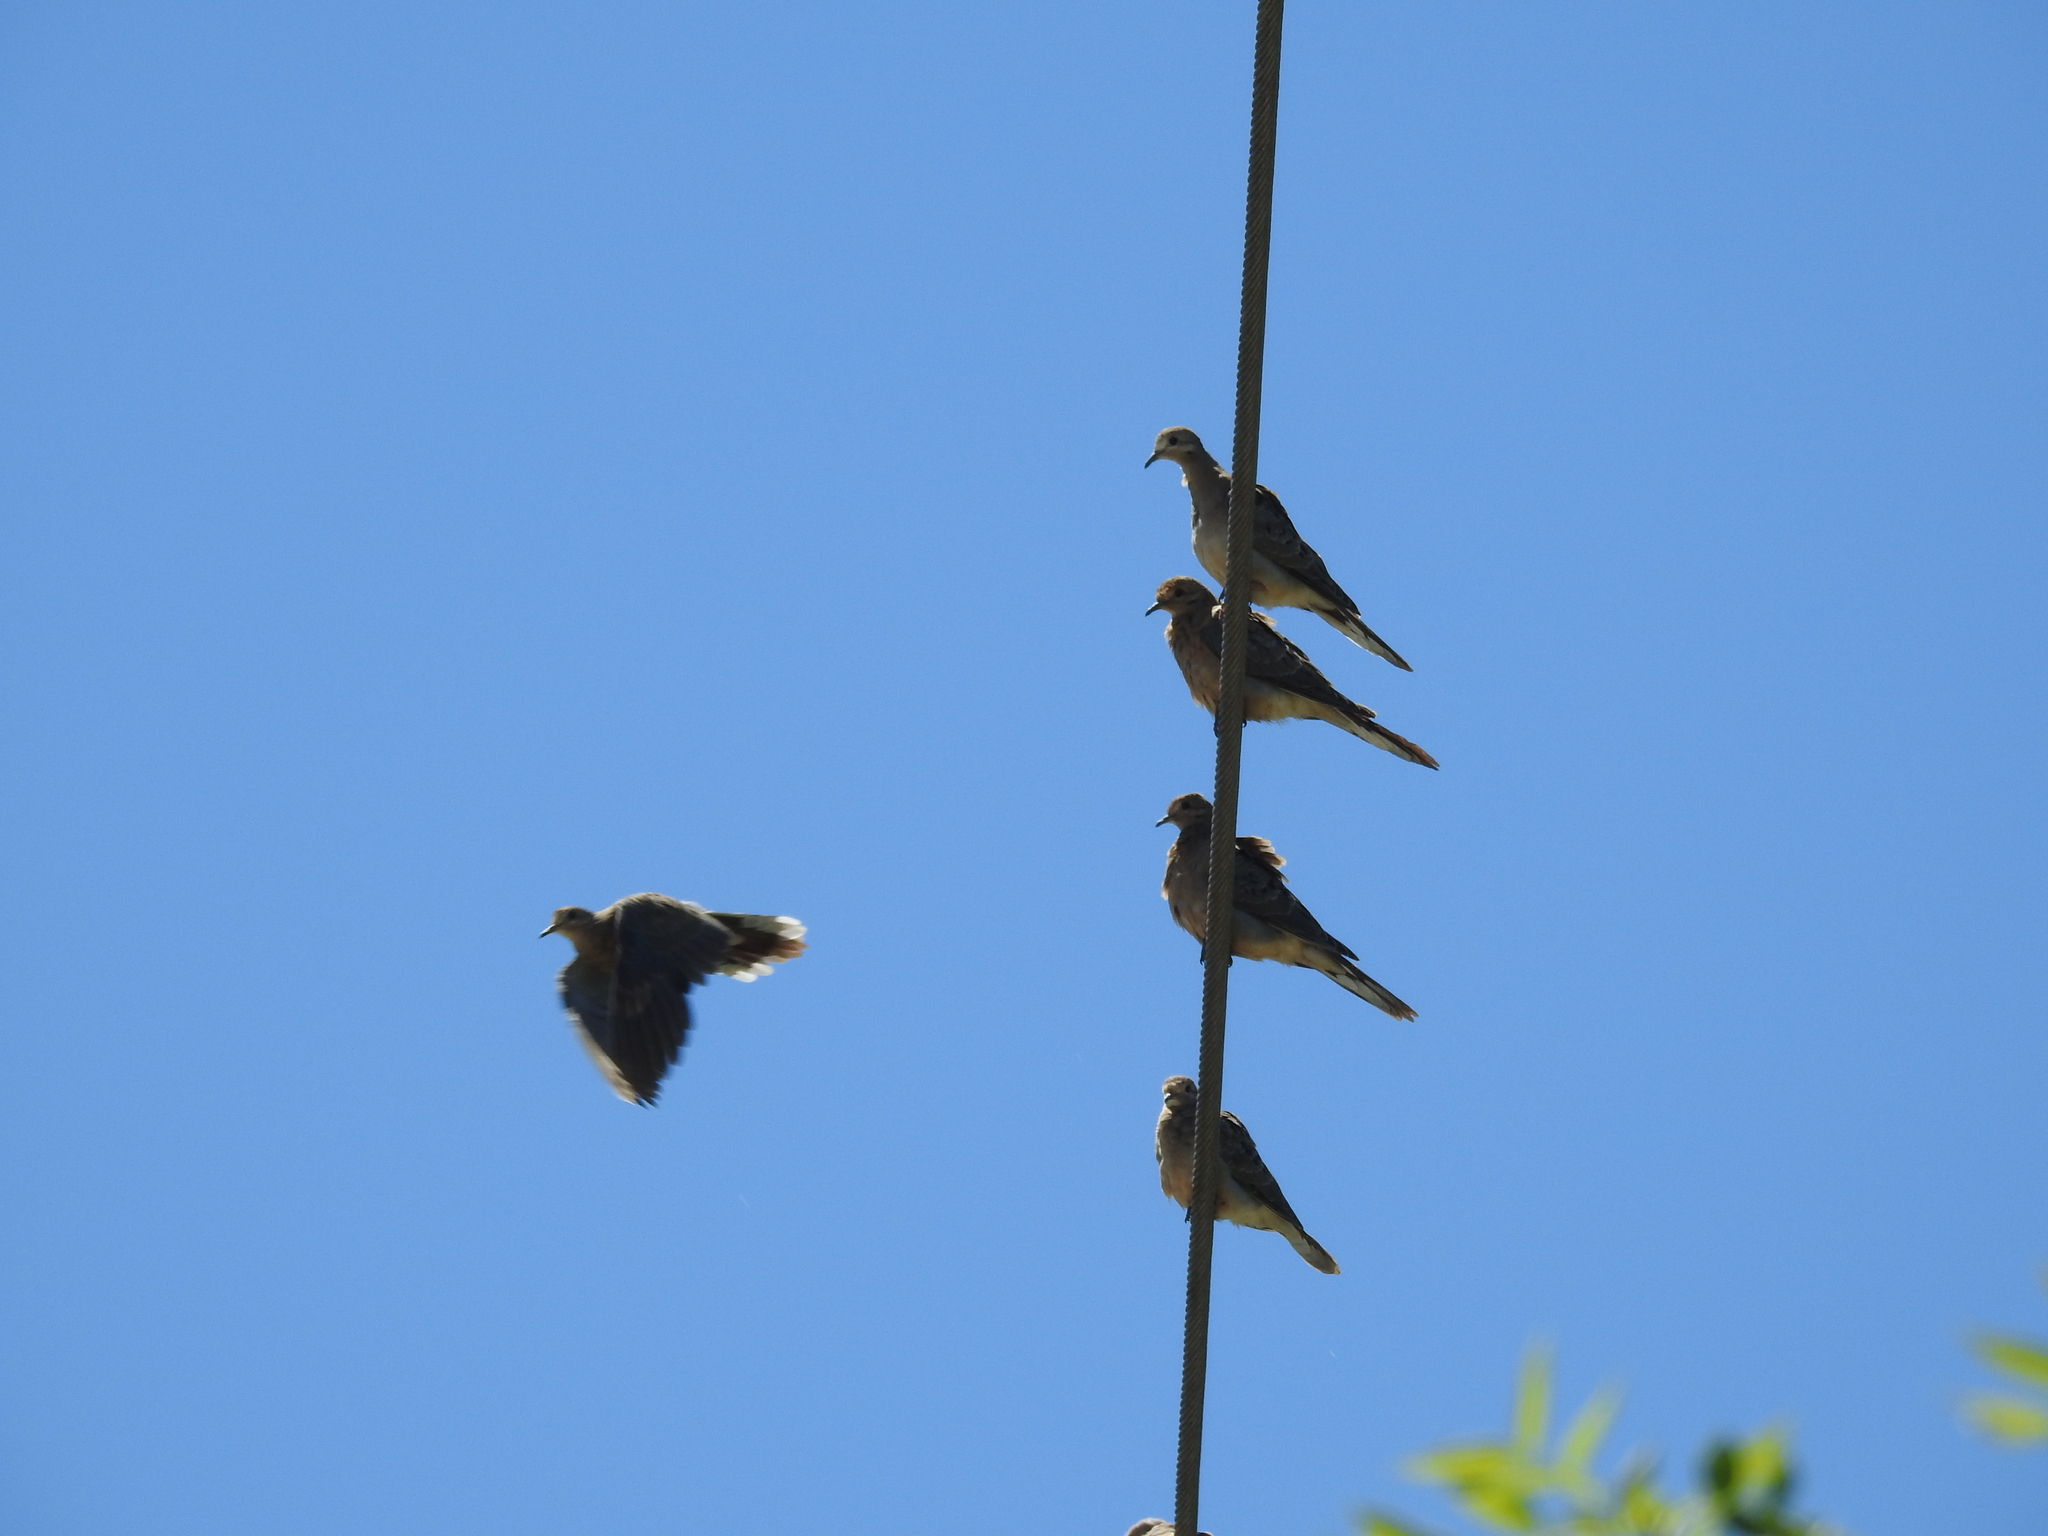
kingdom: Animalia
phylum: Chordata
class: Aves
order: Columbiformes
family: Columbidae
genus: Zenaida
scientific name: Zenaida macroura
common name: Mourning dove
